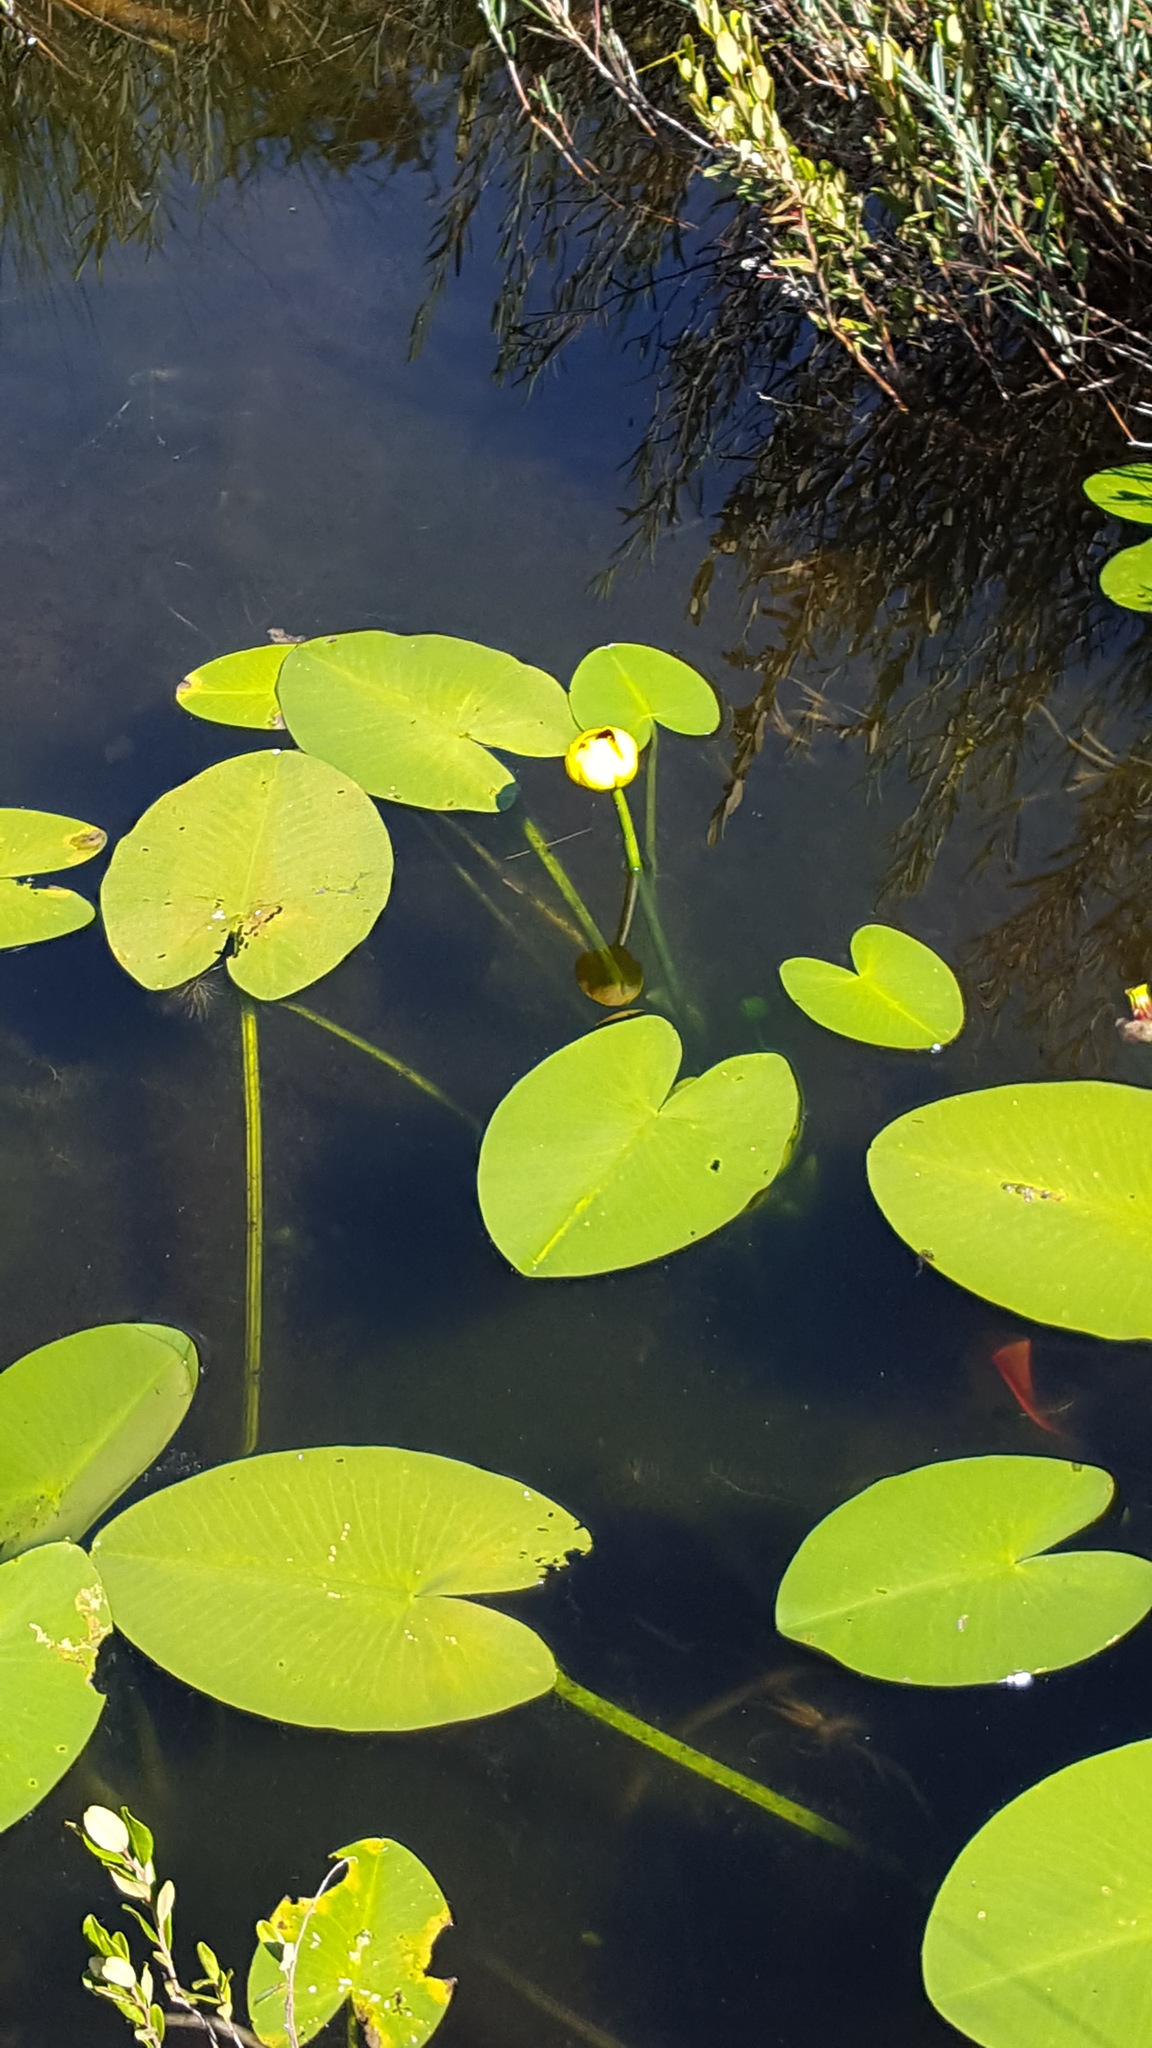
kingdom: Plantae
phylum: Tracheophyta
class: Magnoliopsida
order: Nymphaeales
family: Nymphaeaceae
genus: Nuphar
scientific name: Nuphar variegata
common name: Beaver-root
